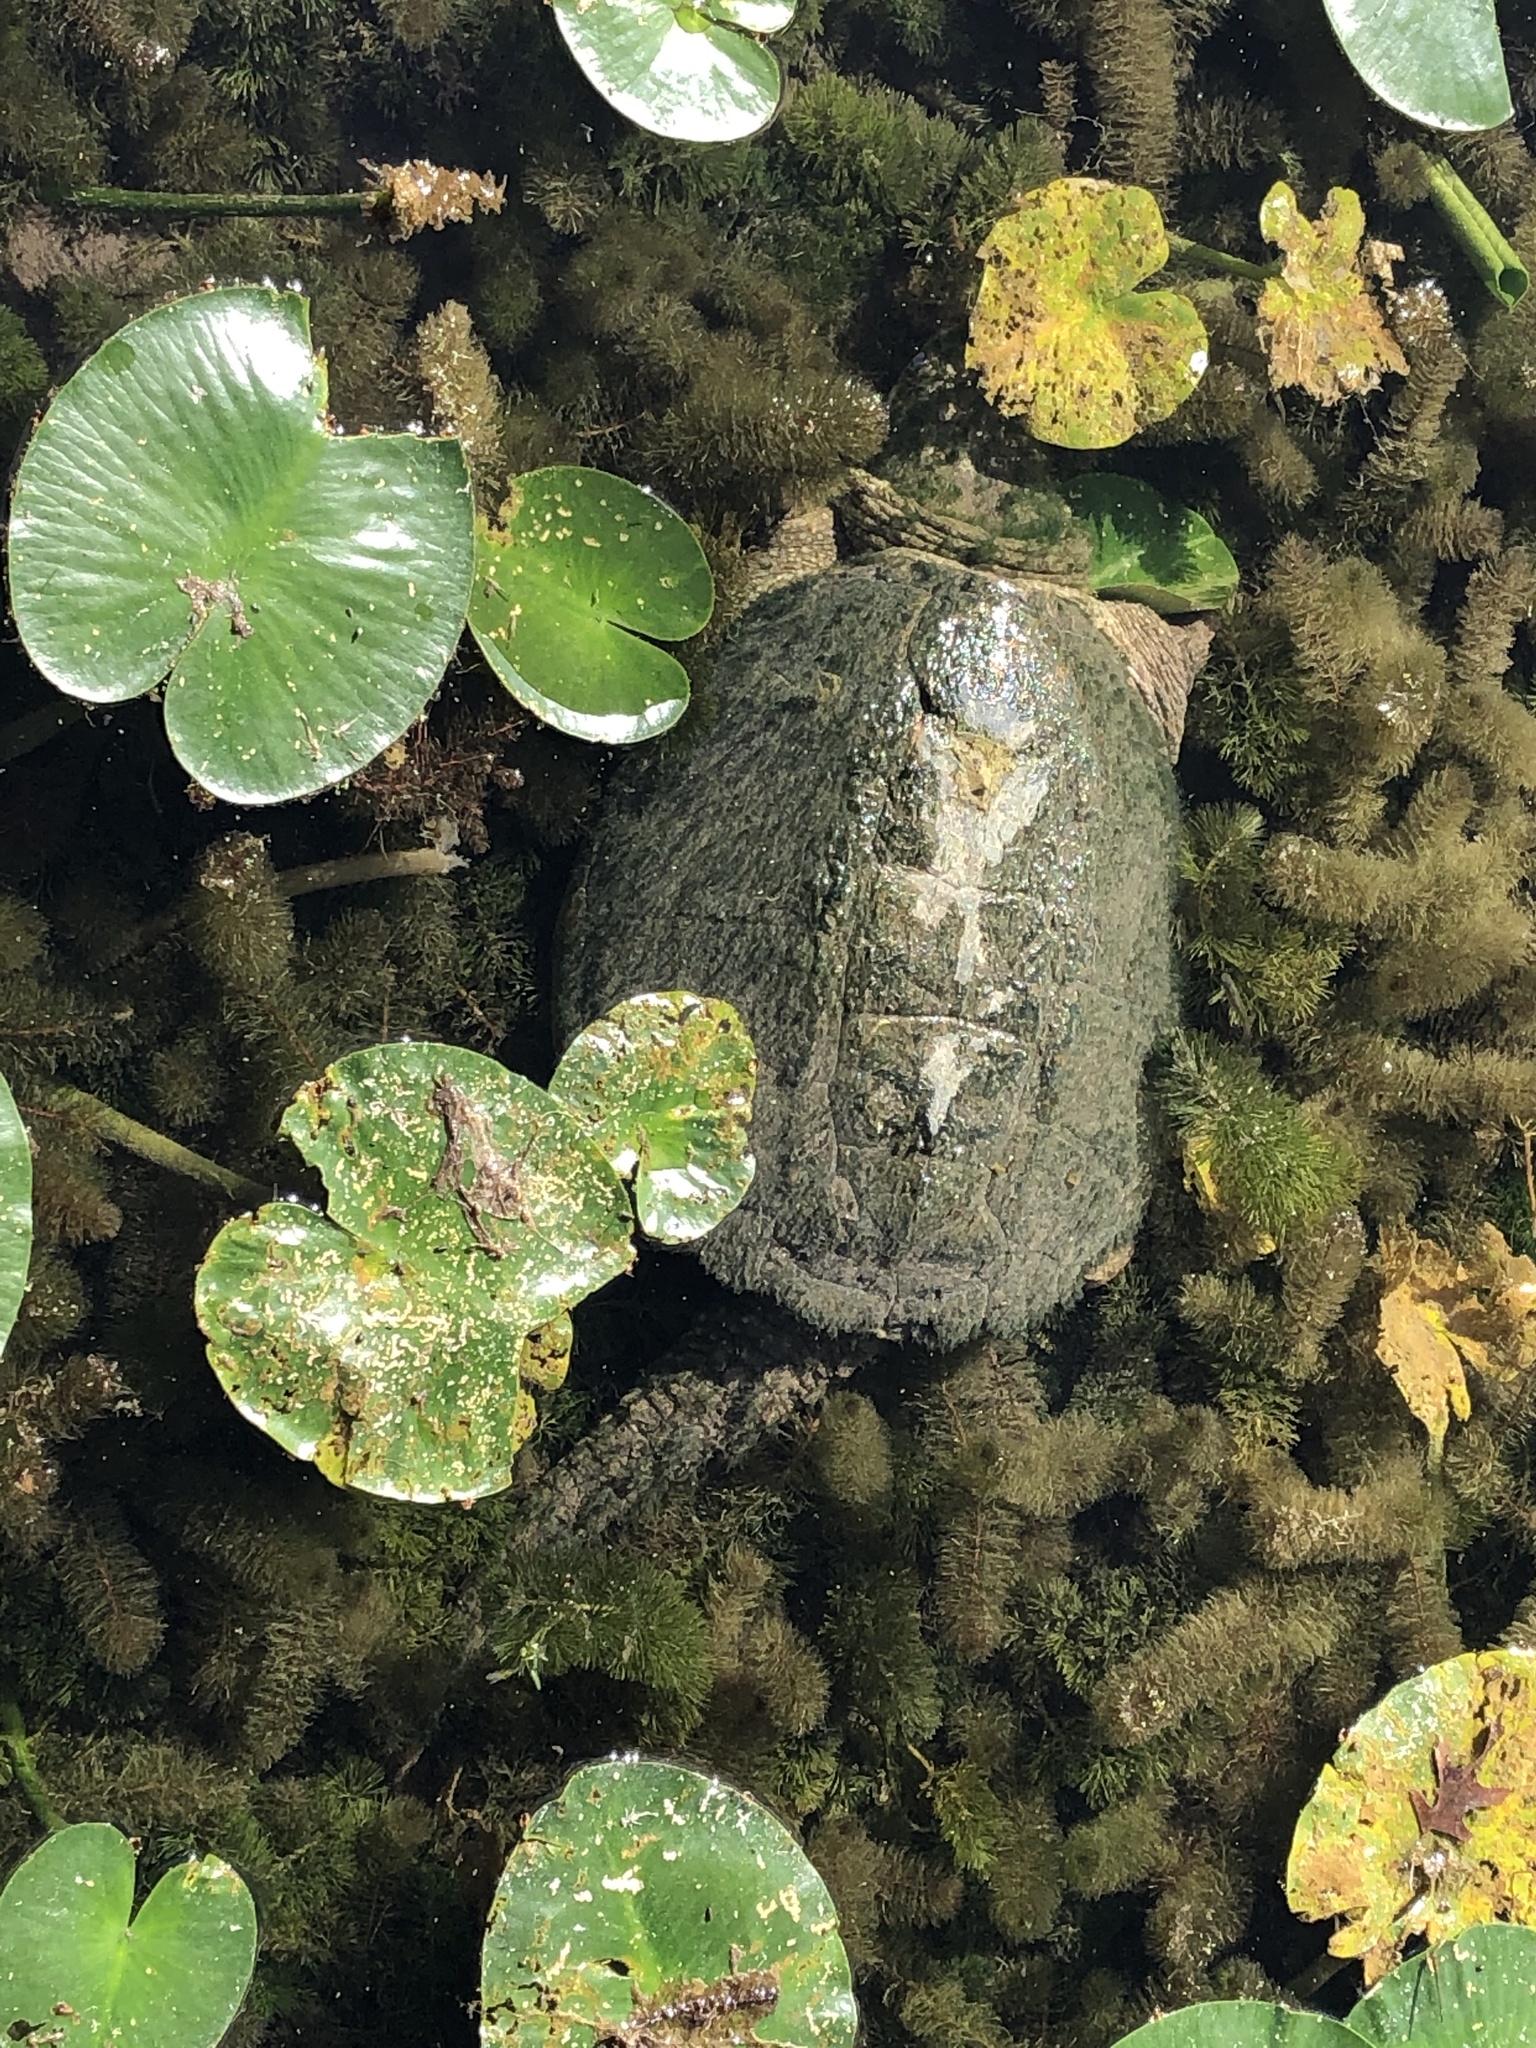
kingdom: Animalia
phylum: Chordata
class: Testudines
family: Chelydridae
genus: Chelydra
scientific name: Chelydra serpentina
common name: Common snapping turtle
